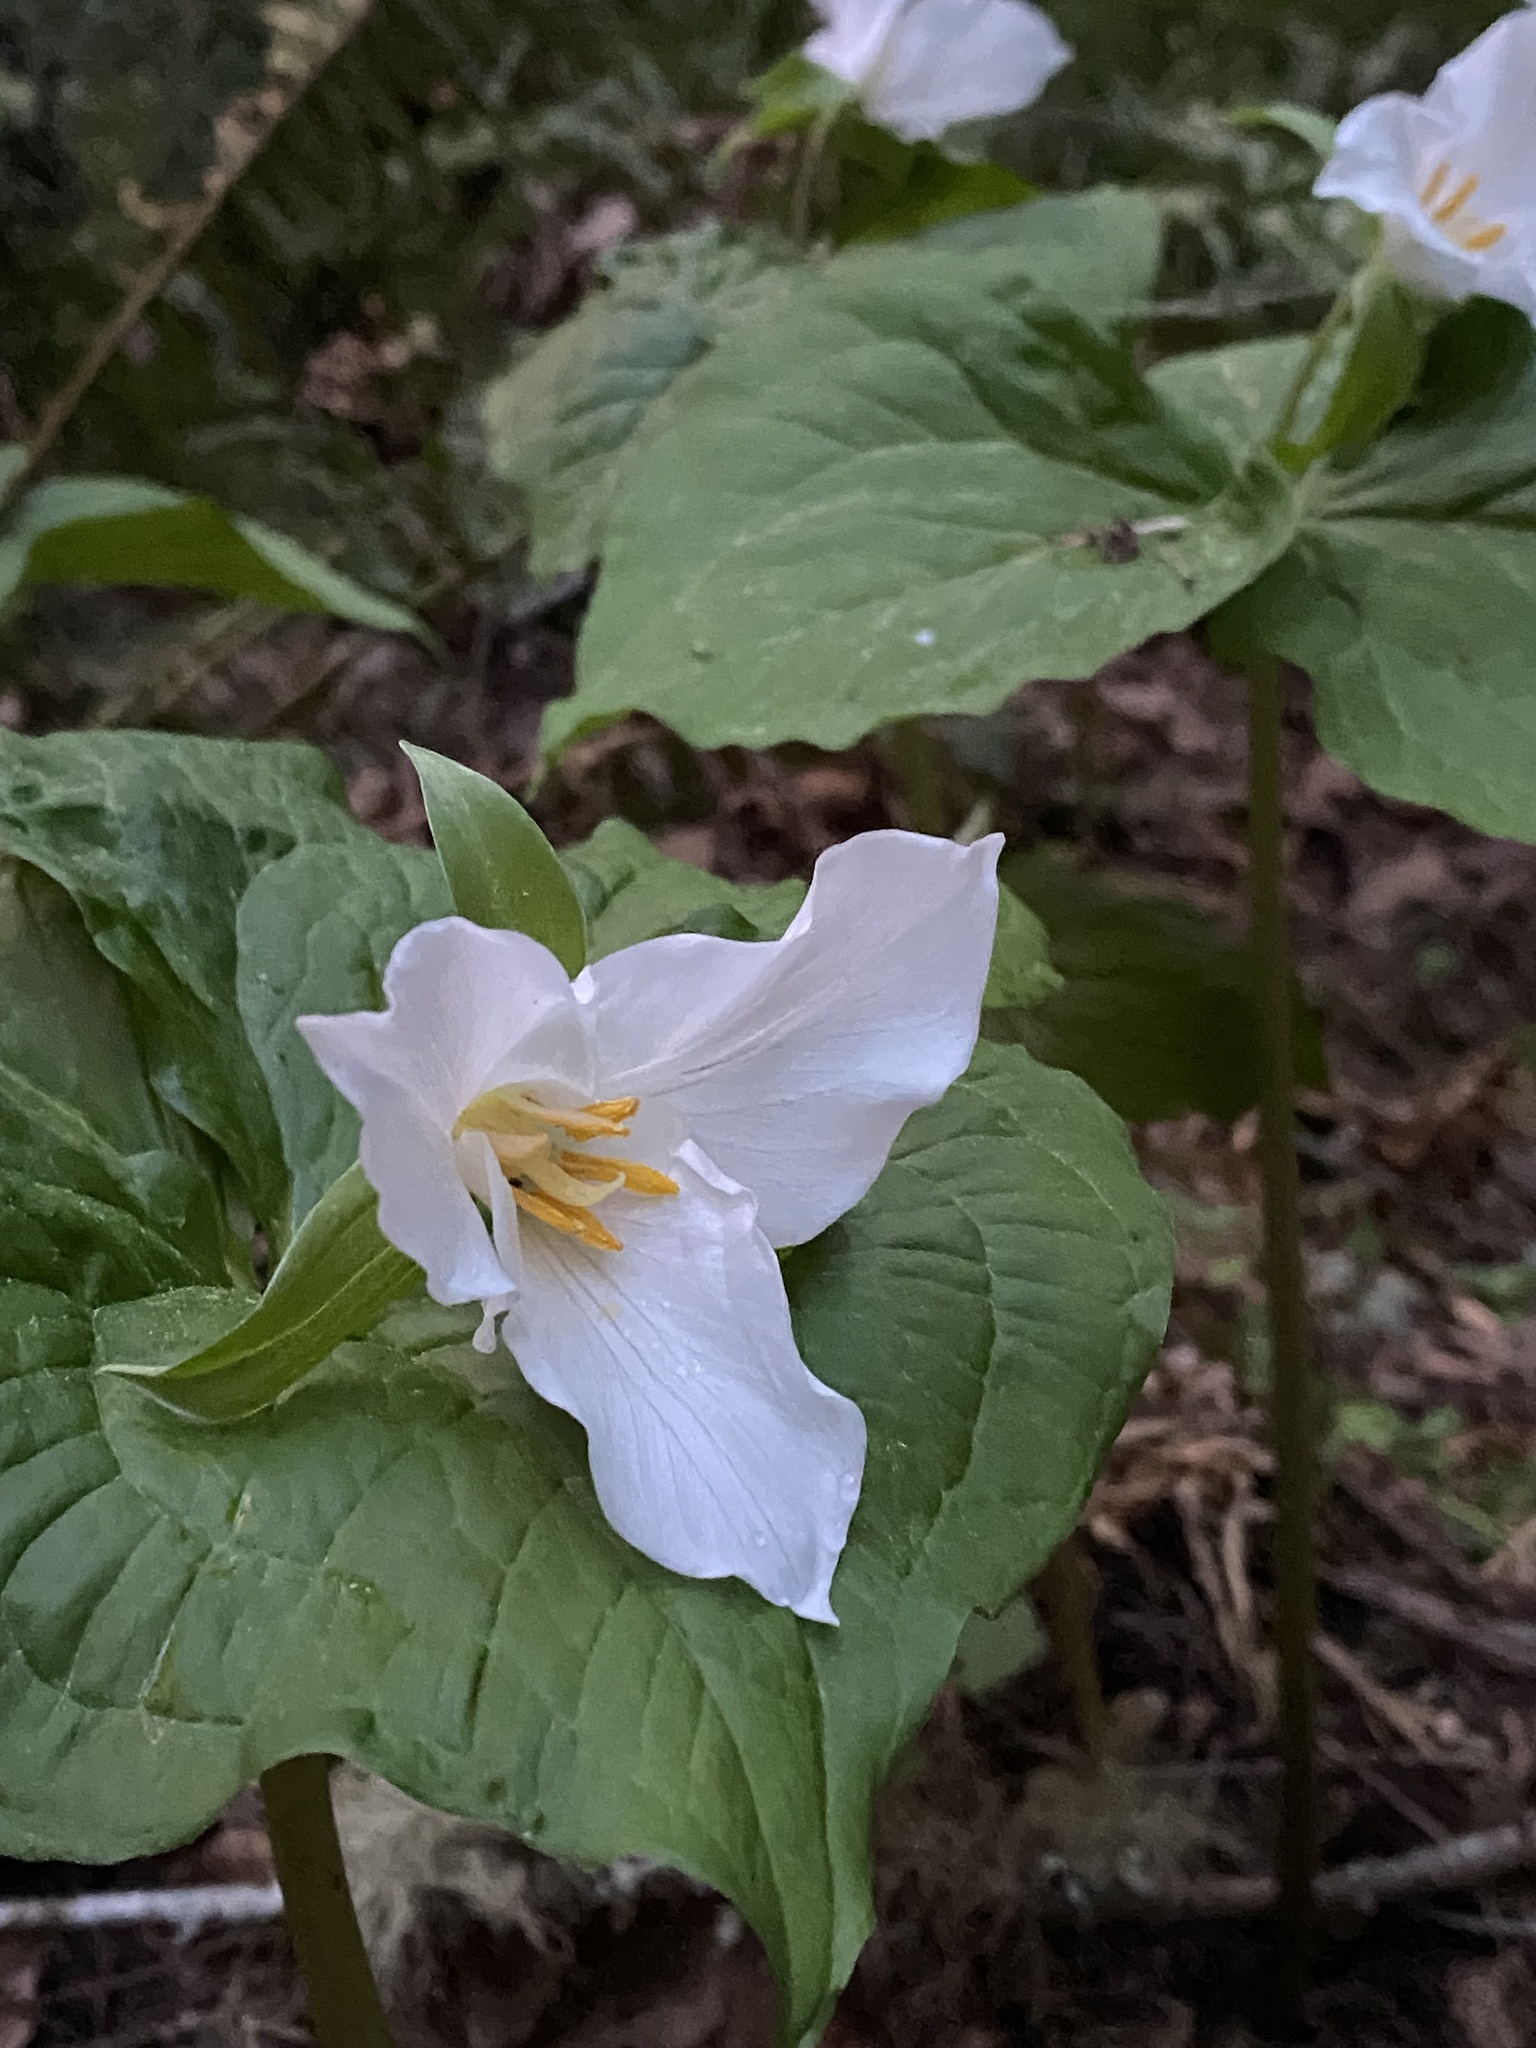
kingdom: Plantae
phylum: Tracheophyta
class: Liliopsida
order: Liliales
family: Melanthiaceae
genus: Trillium
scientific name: Trillium ovatum
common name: Pacific trillium
